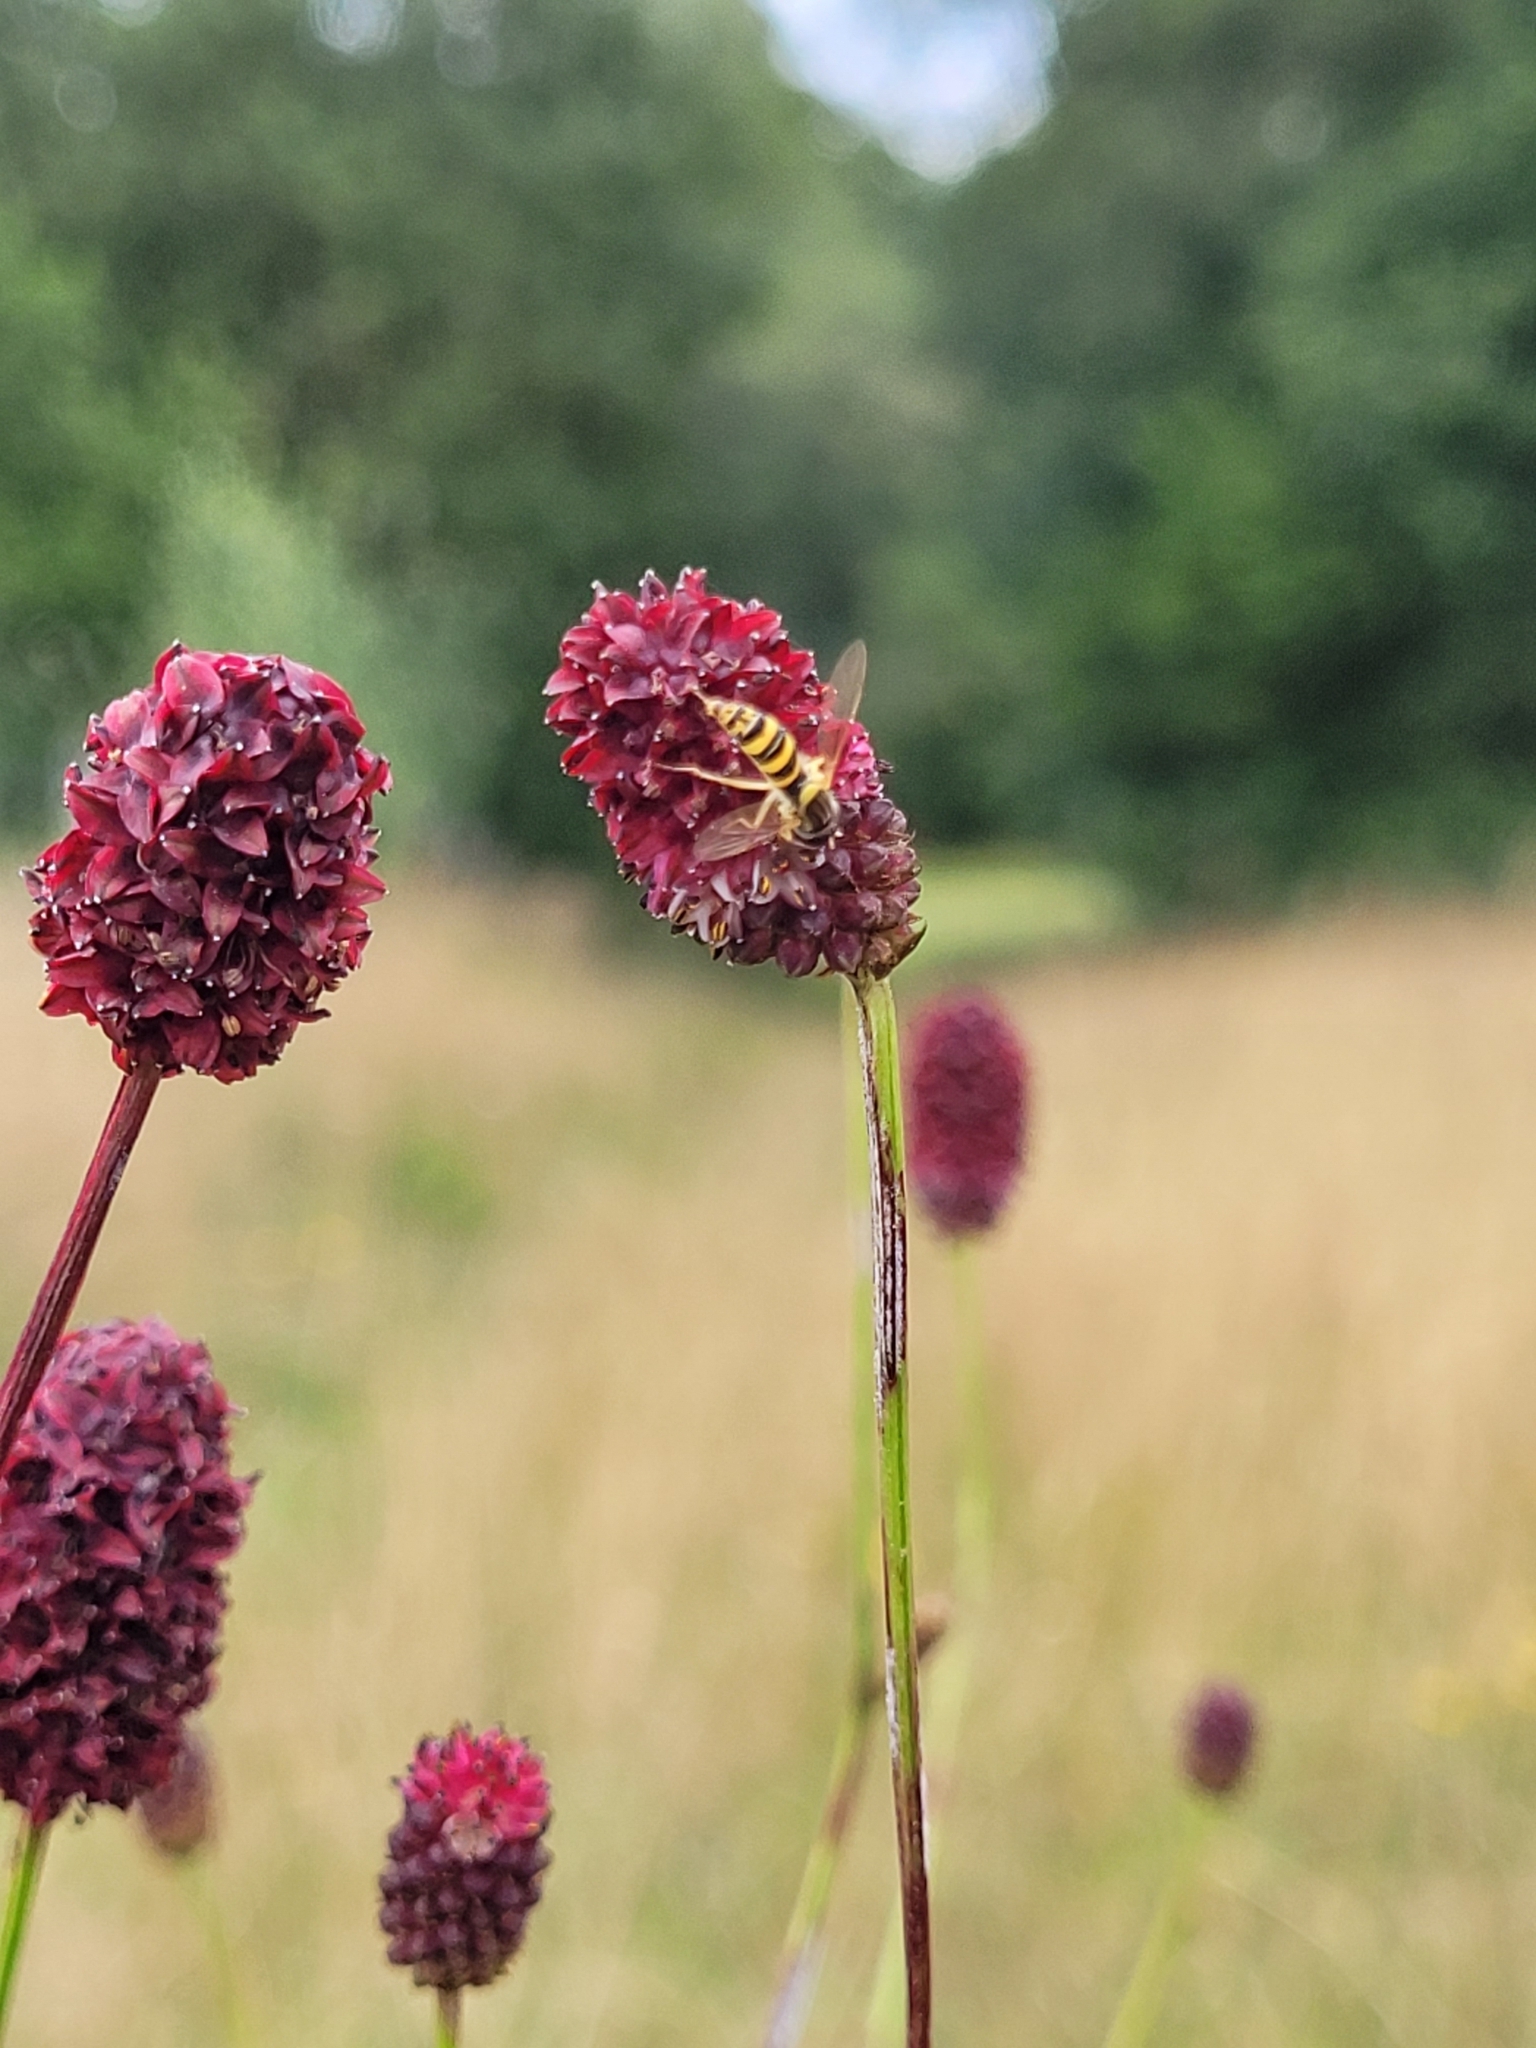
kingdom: Plantae
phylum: Tracheophyta
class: Magnoliopsida
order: Rosales
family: Rosaceae
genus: Sanguisorba
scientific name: Sanguisorba officinalis
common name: Great burnet
